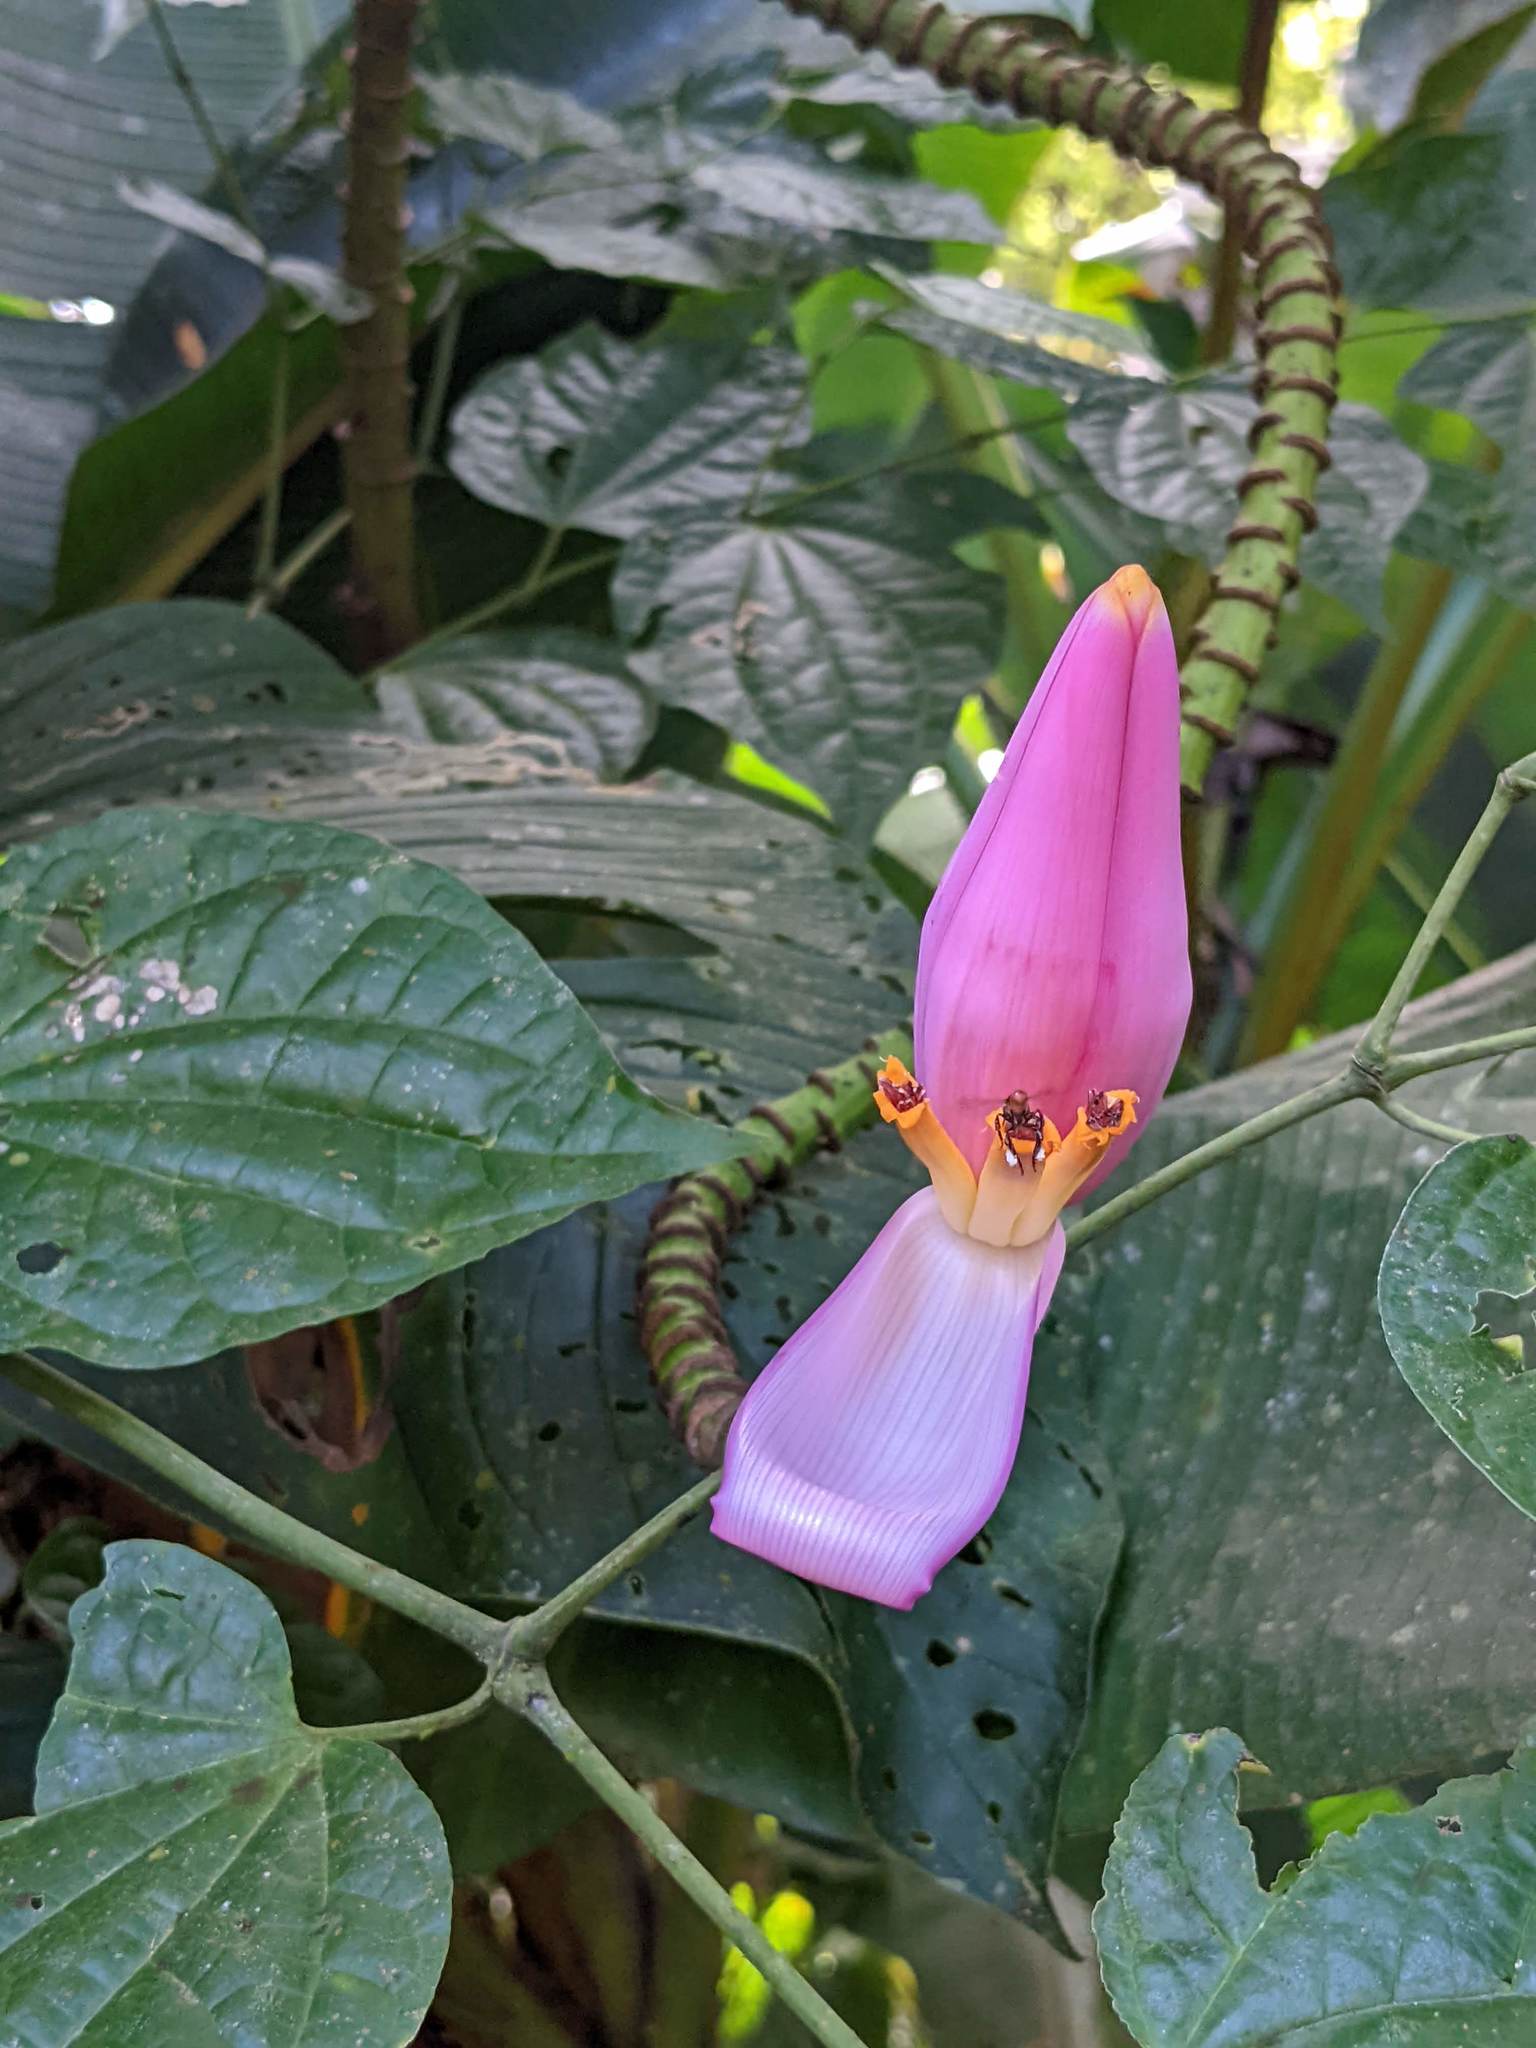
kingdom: Plantae
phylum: Tracheophyta
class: Liliopsida
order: Zingiberales
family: Musaceae
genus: Musa
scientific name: Musa ornata
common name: Flowering banana
